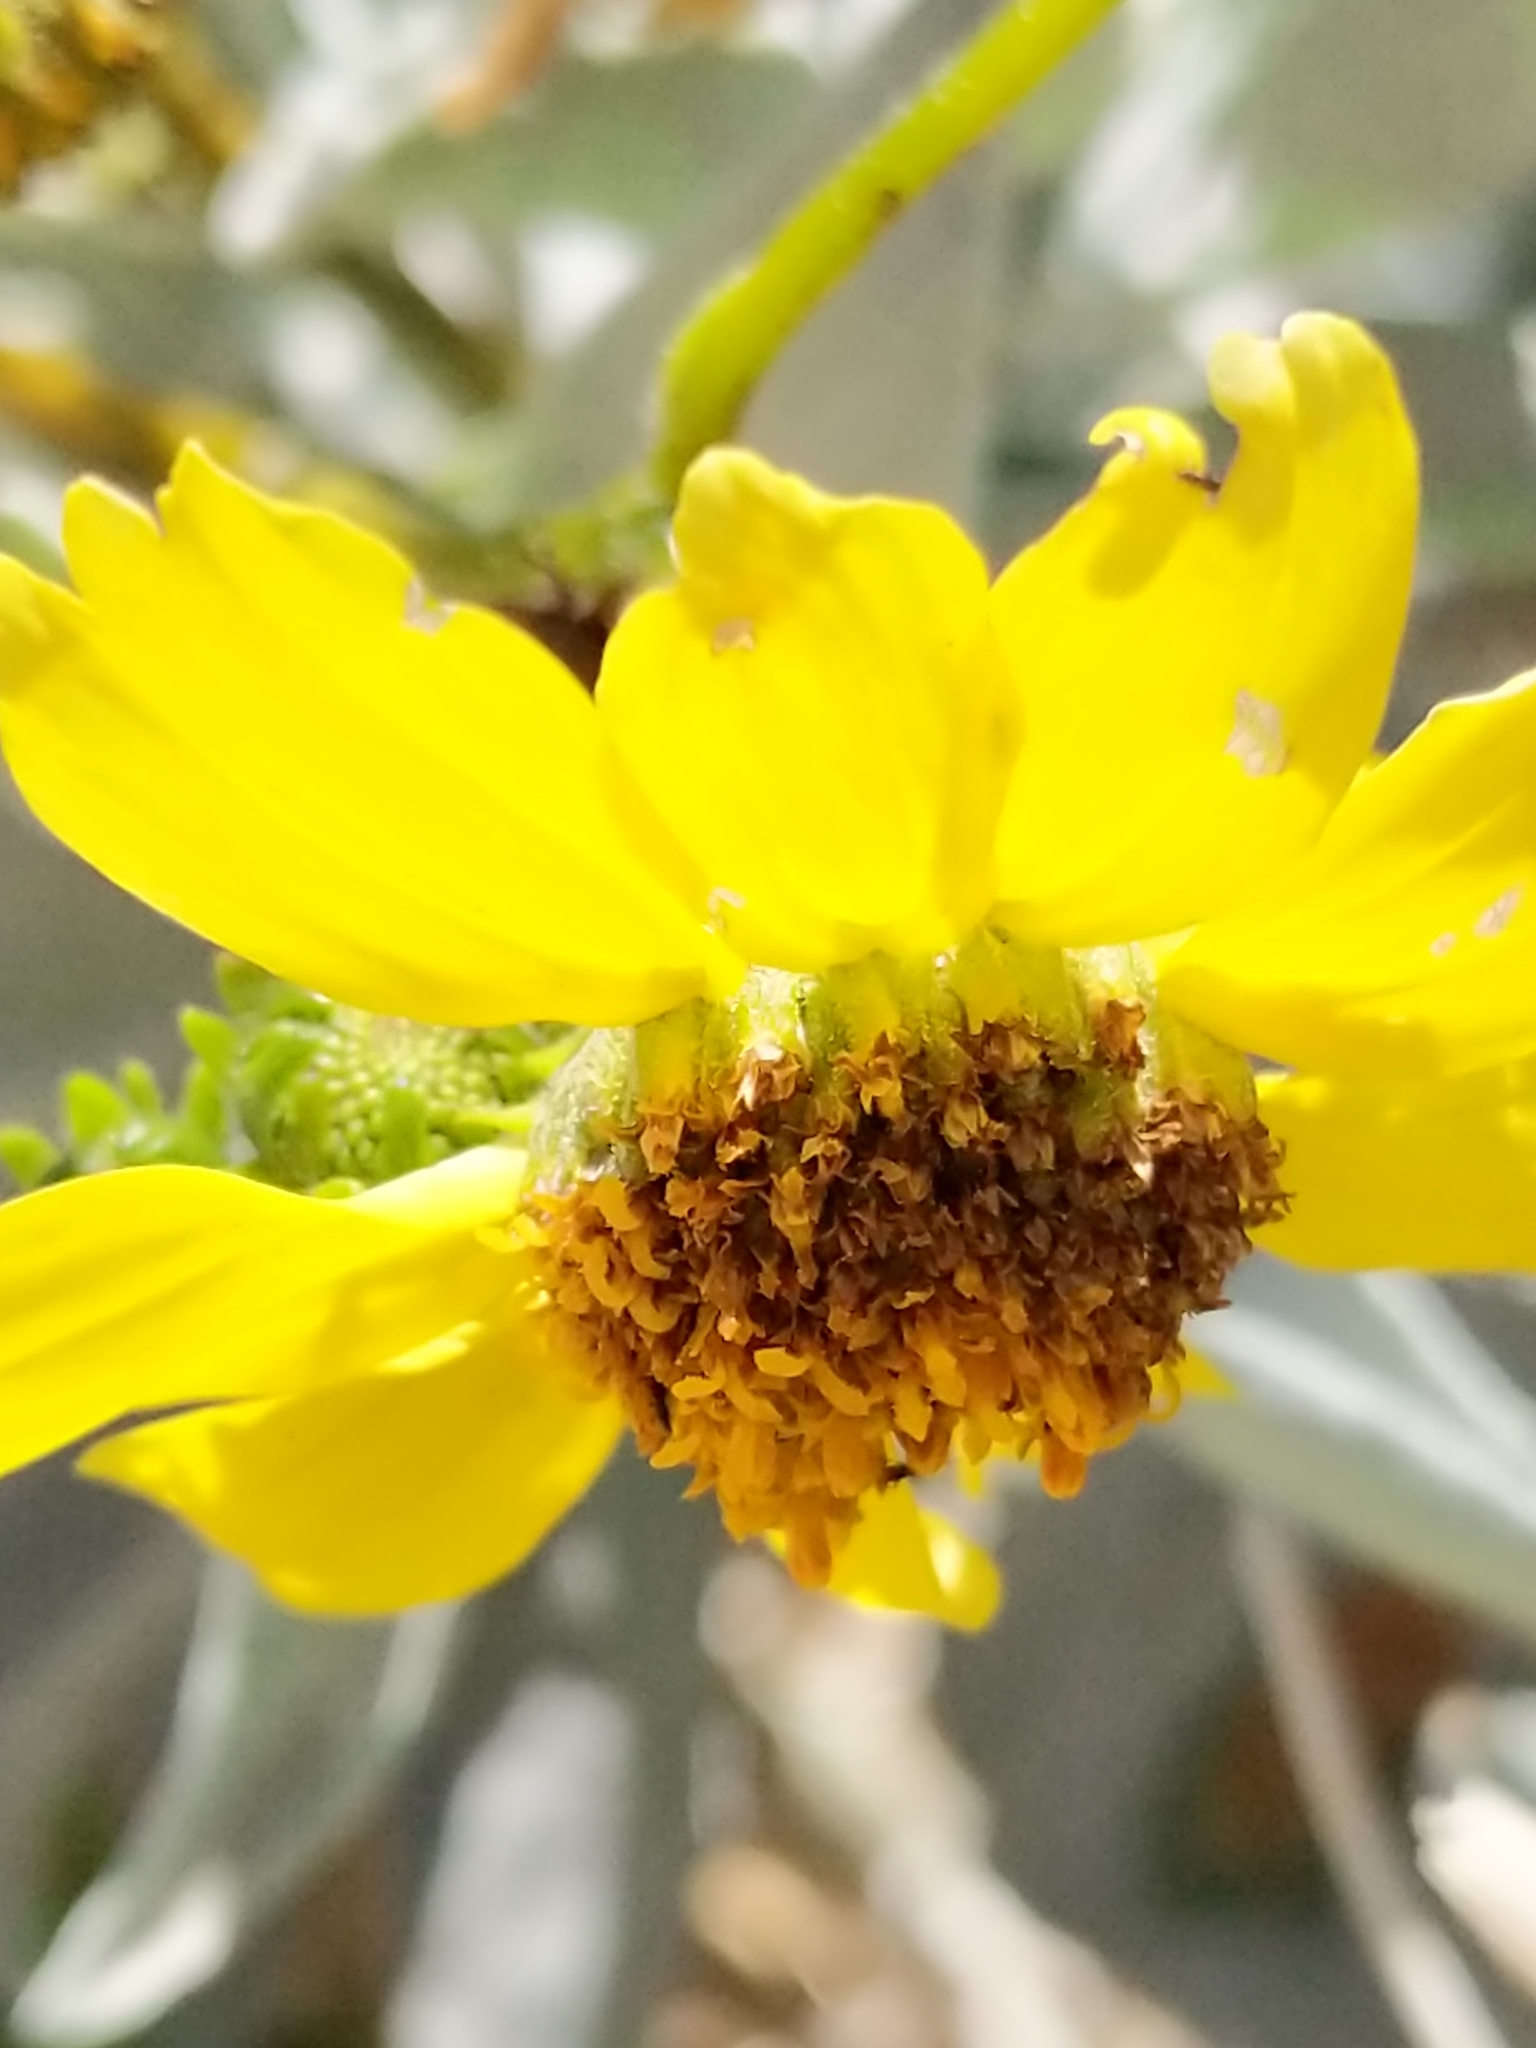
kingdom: Plantae
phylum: Tracheophyta
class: Magnoliopsida
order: Asterales
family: Asteraceae
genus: Encelia
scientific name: Encelia farinosa
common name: Brittlebush
